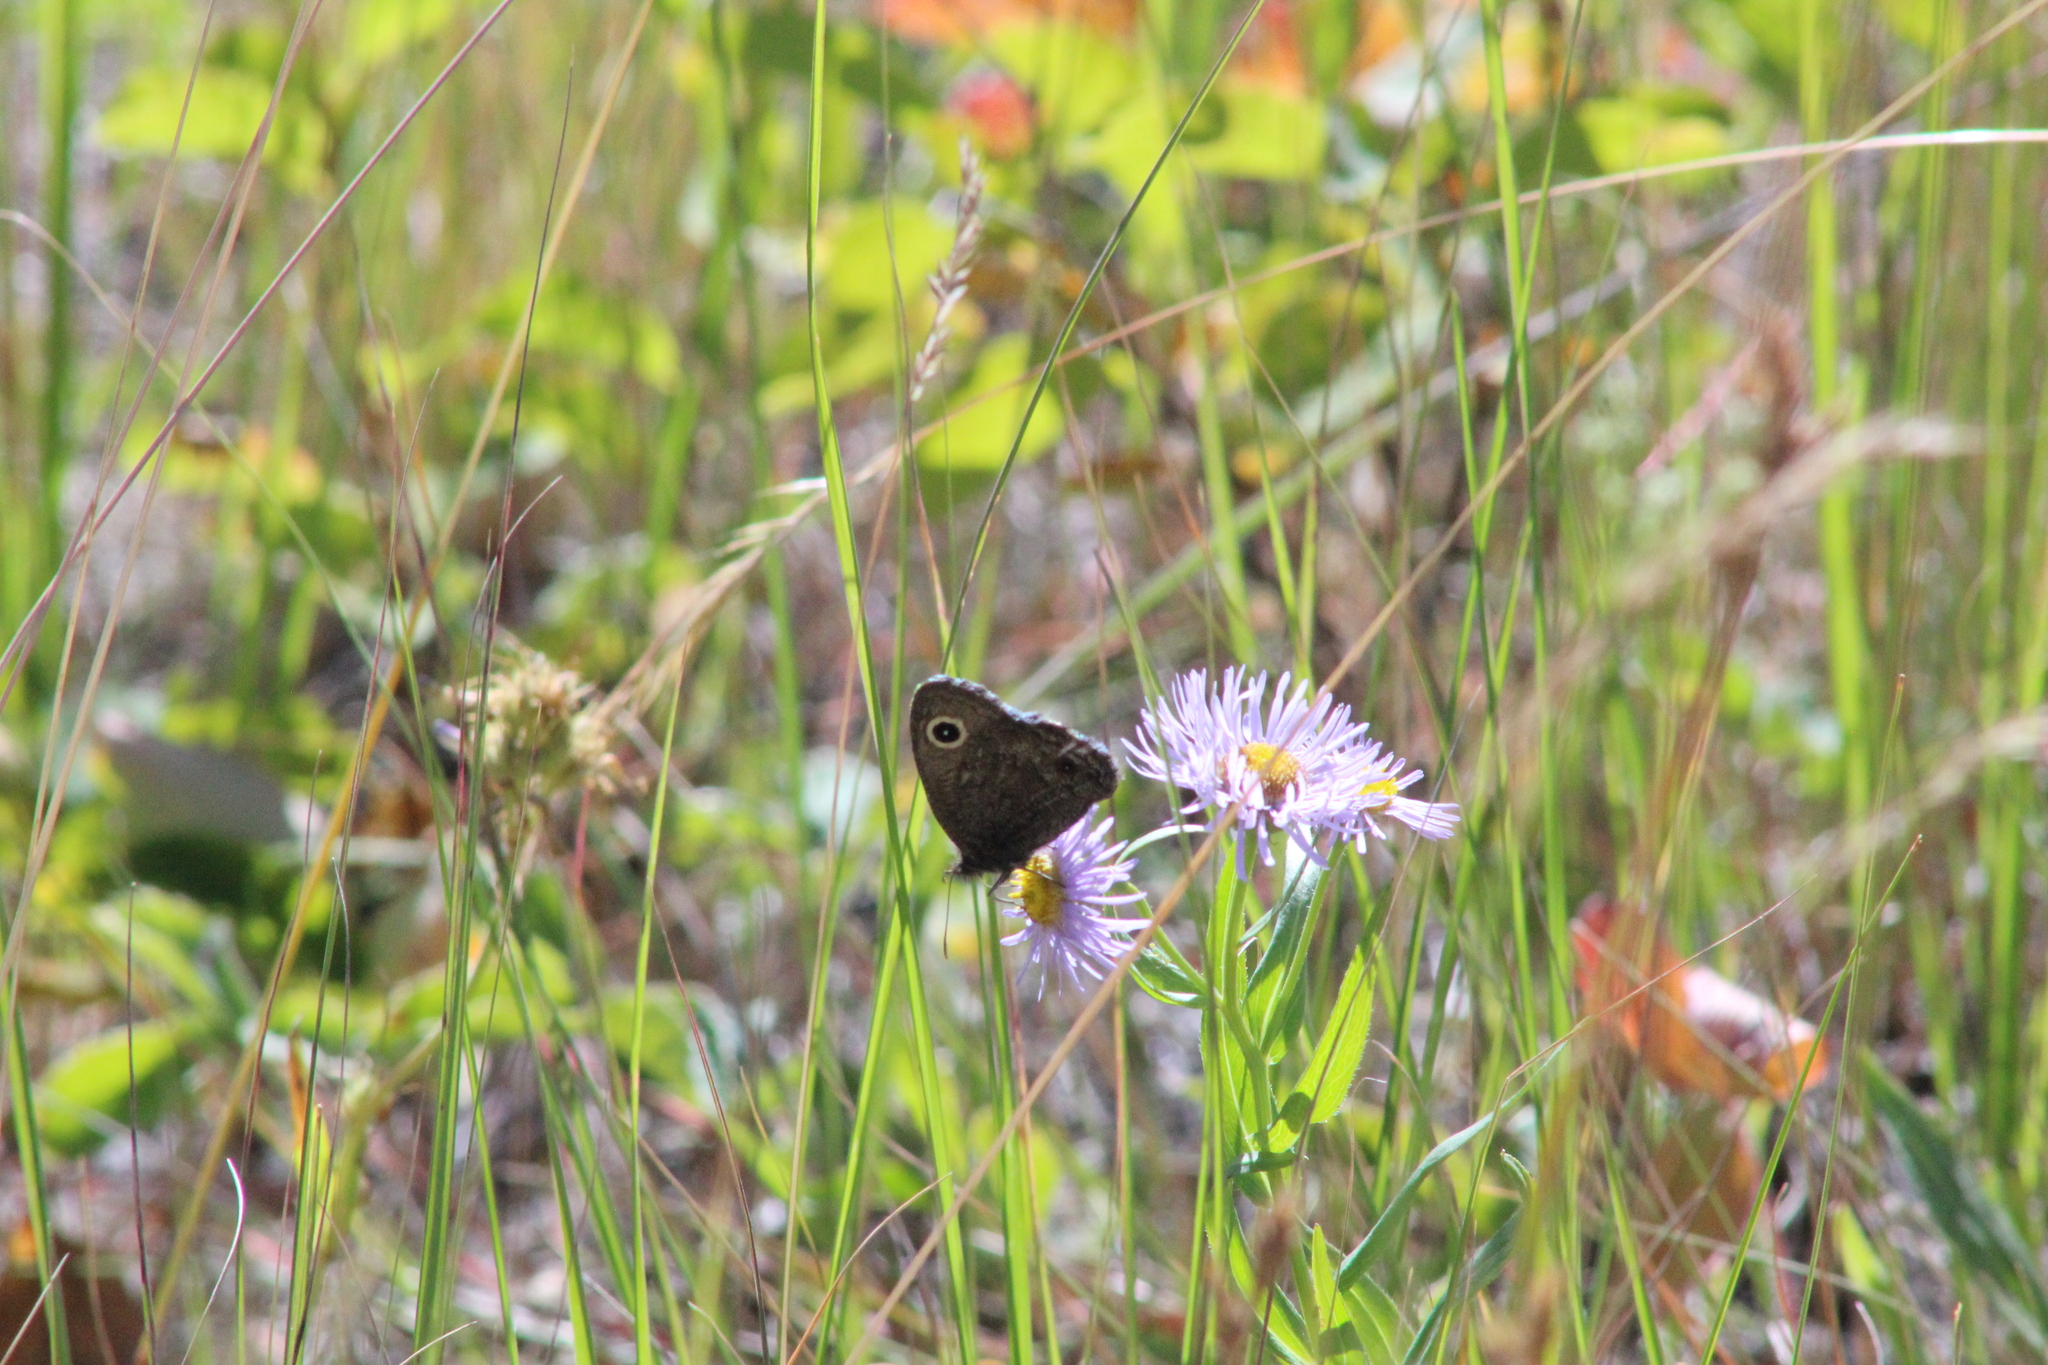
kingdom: Animalia
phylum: Arthropoda
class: Insecta
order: Lepidoptera
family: Nymphalidae
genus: Cercyonis
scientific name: Cercyonis oetus
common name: Small wood-nymph
